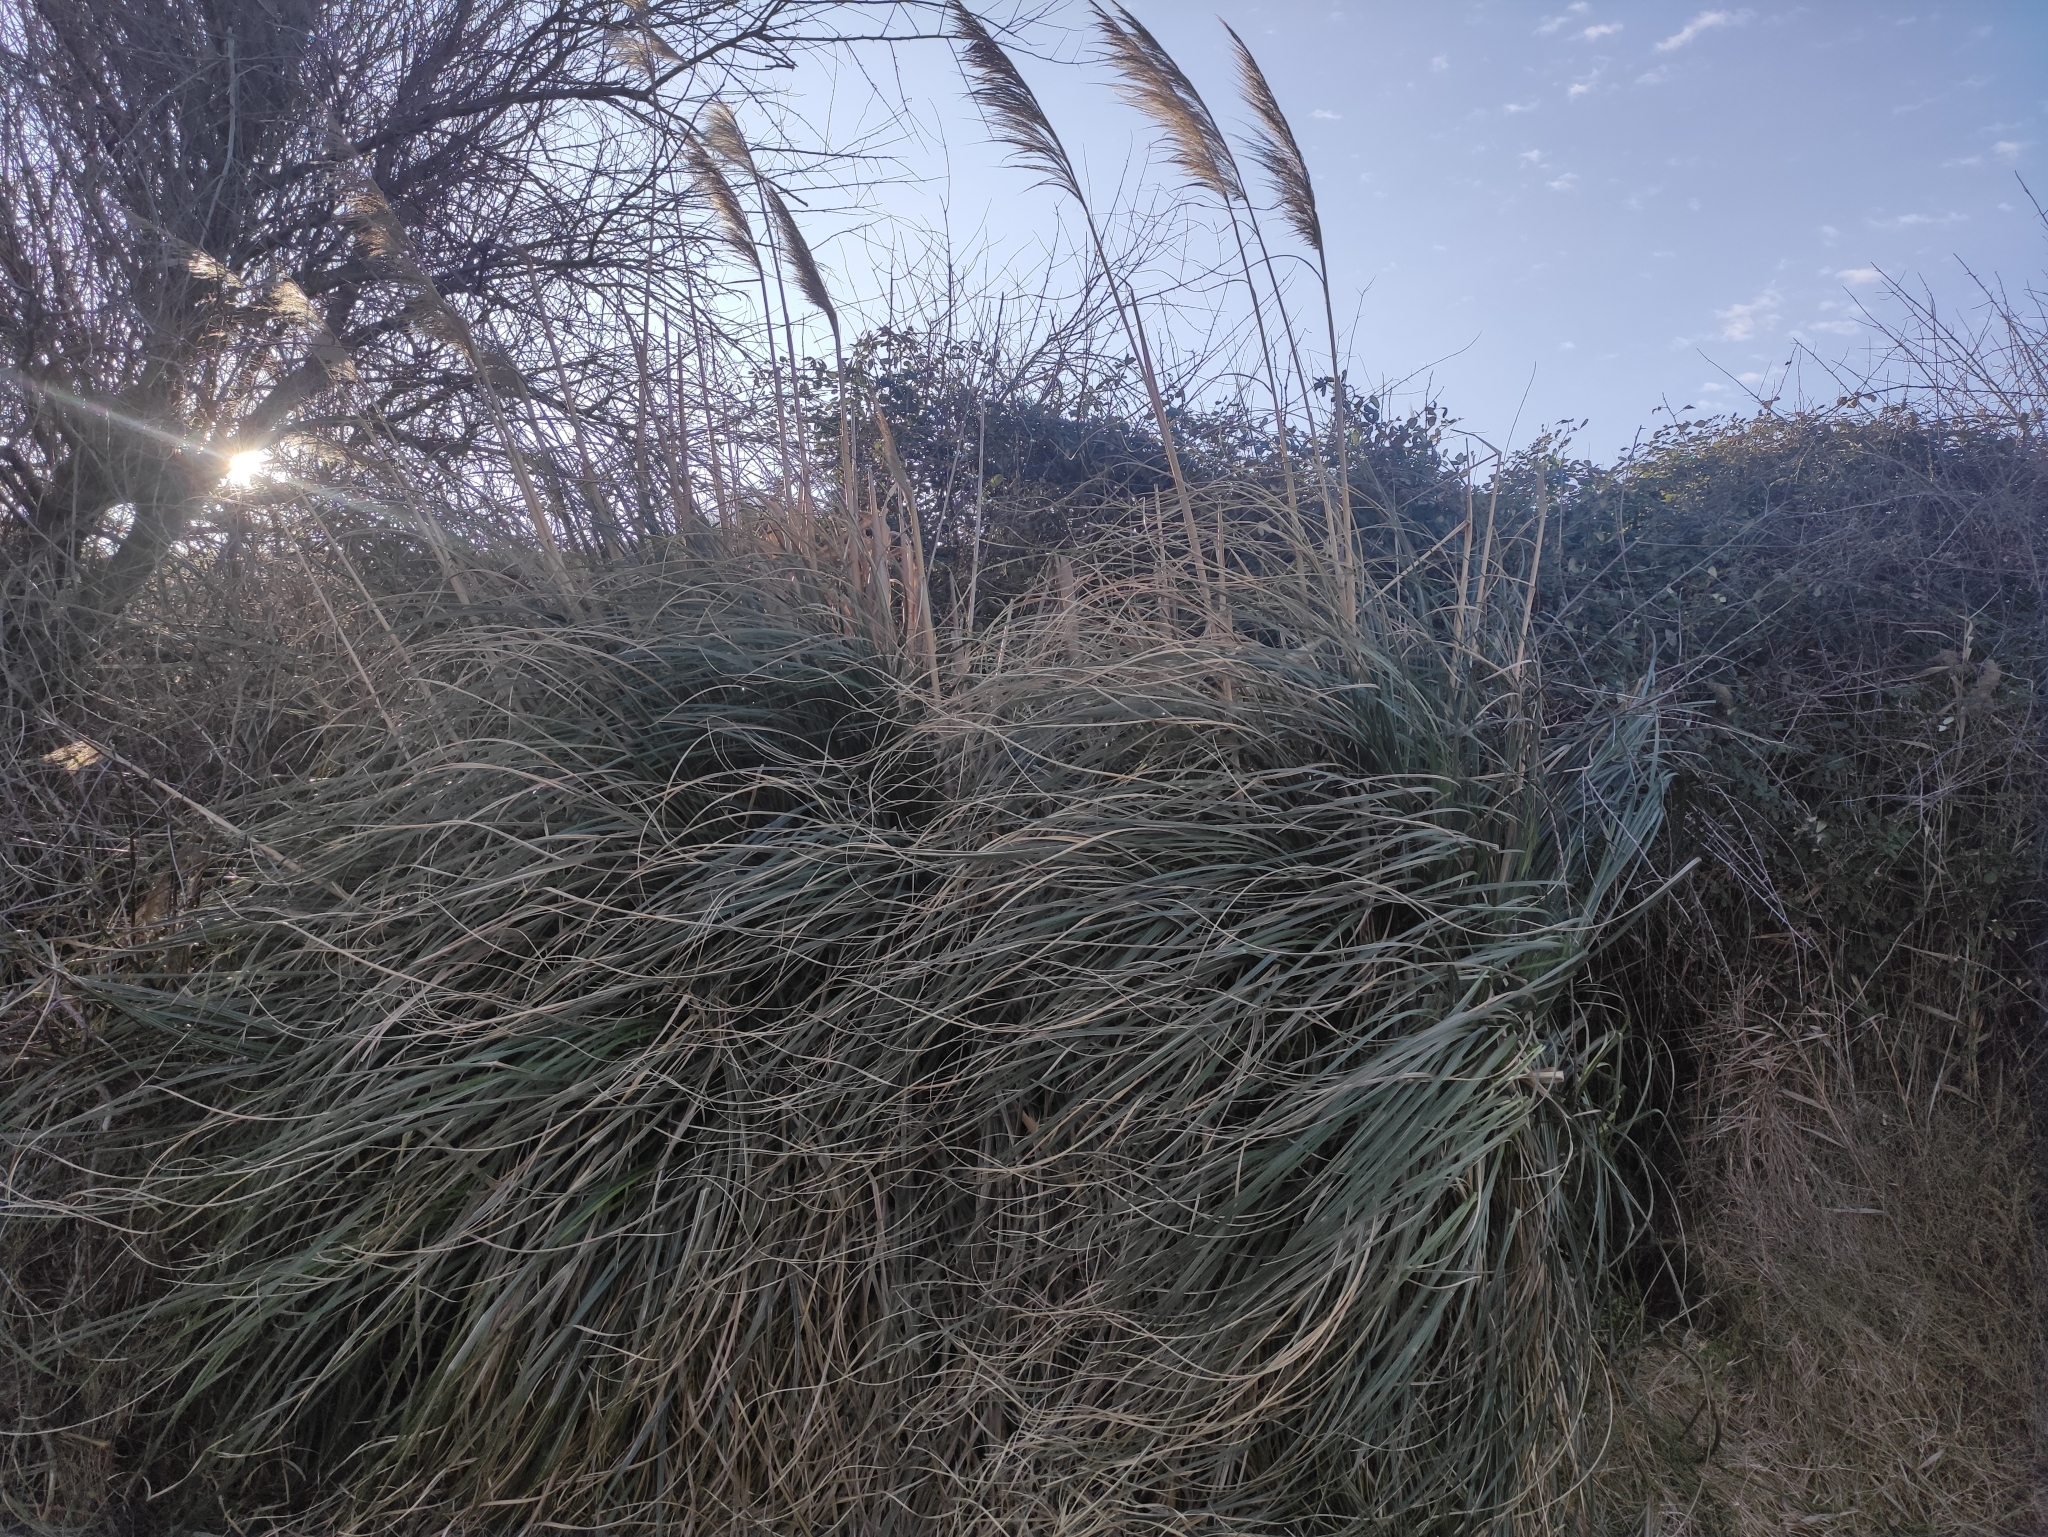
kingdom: Plantae
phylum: Tracheophyta
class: Liliopsida
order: Poales
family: Poaceae
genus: Cortaderia
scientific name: Cortaderia selloana
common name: Uruguayan pampas grass
